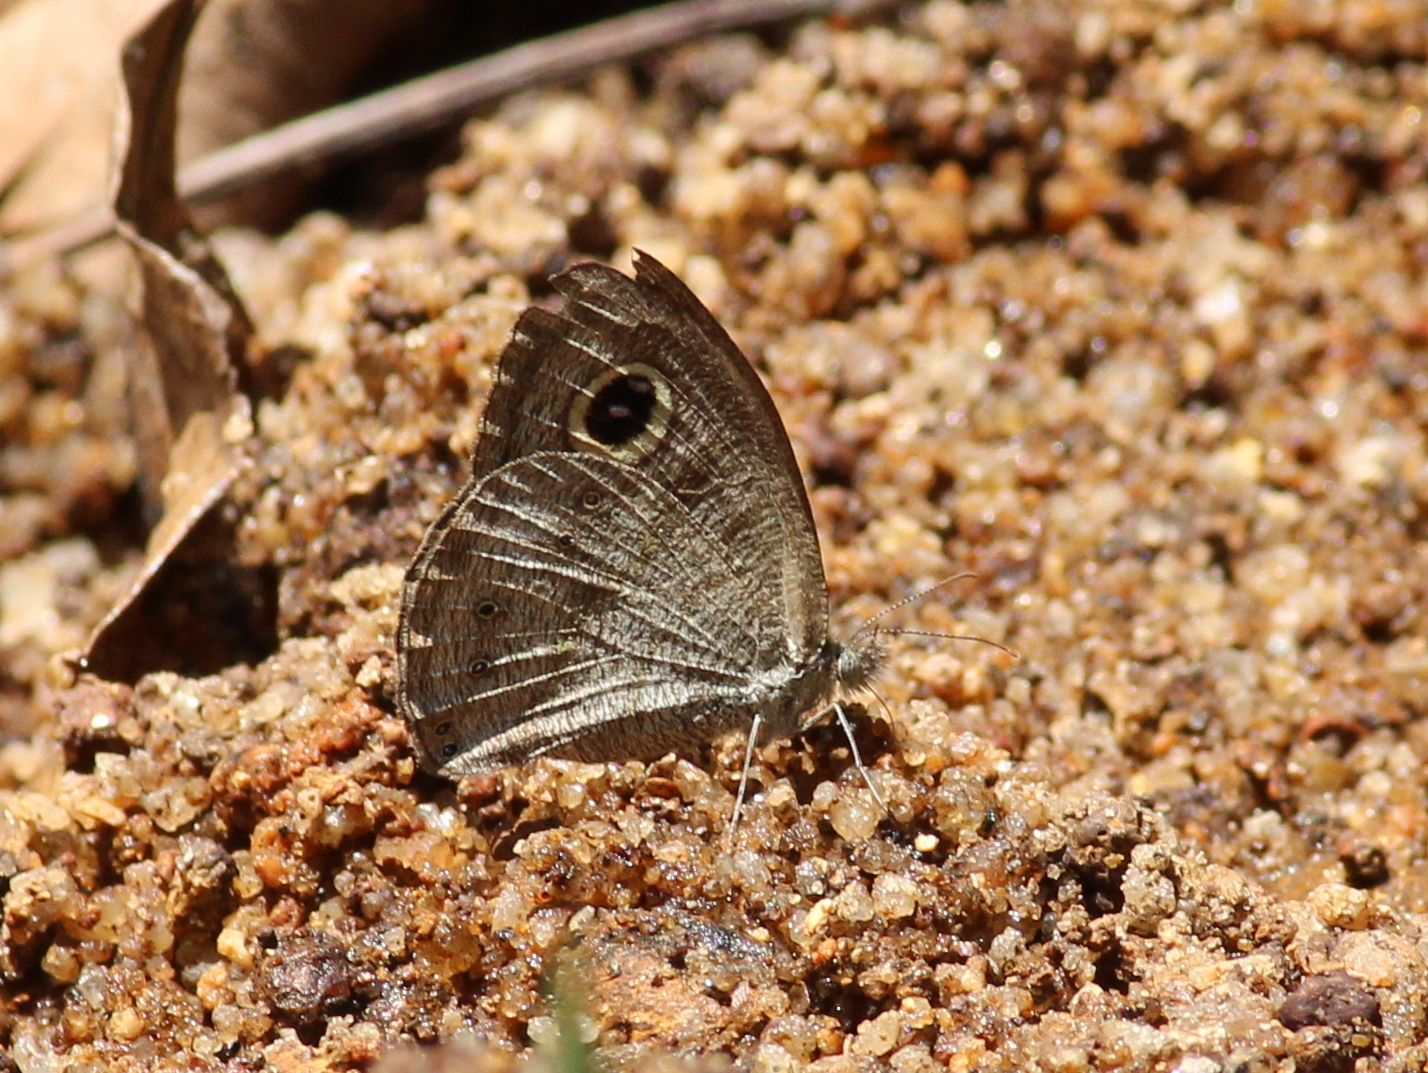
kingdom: Animalia
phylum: Arthropoda
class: Insecta
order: Lepidoptera
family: Nymphalidae
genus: Ypthima
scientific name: Ypthima baldus
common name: Common five-ring
